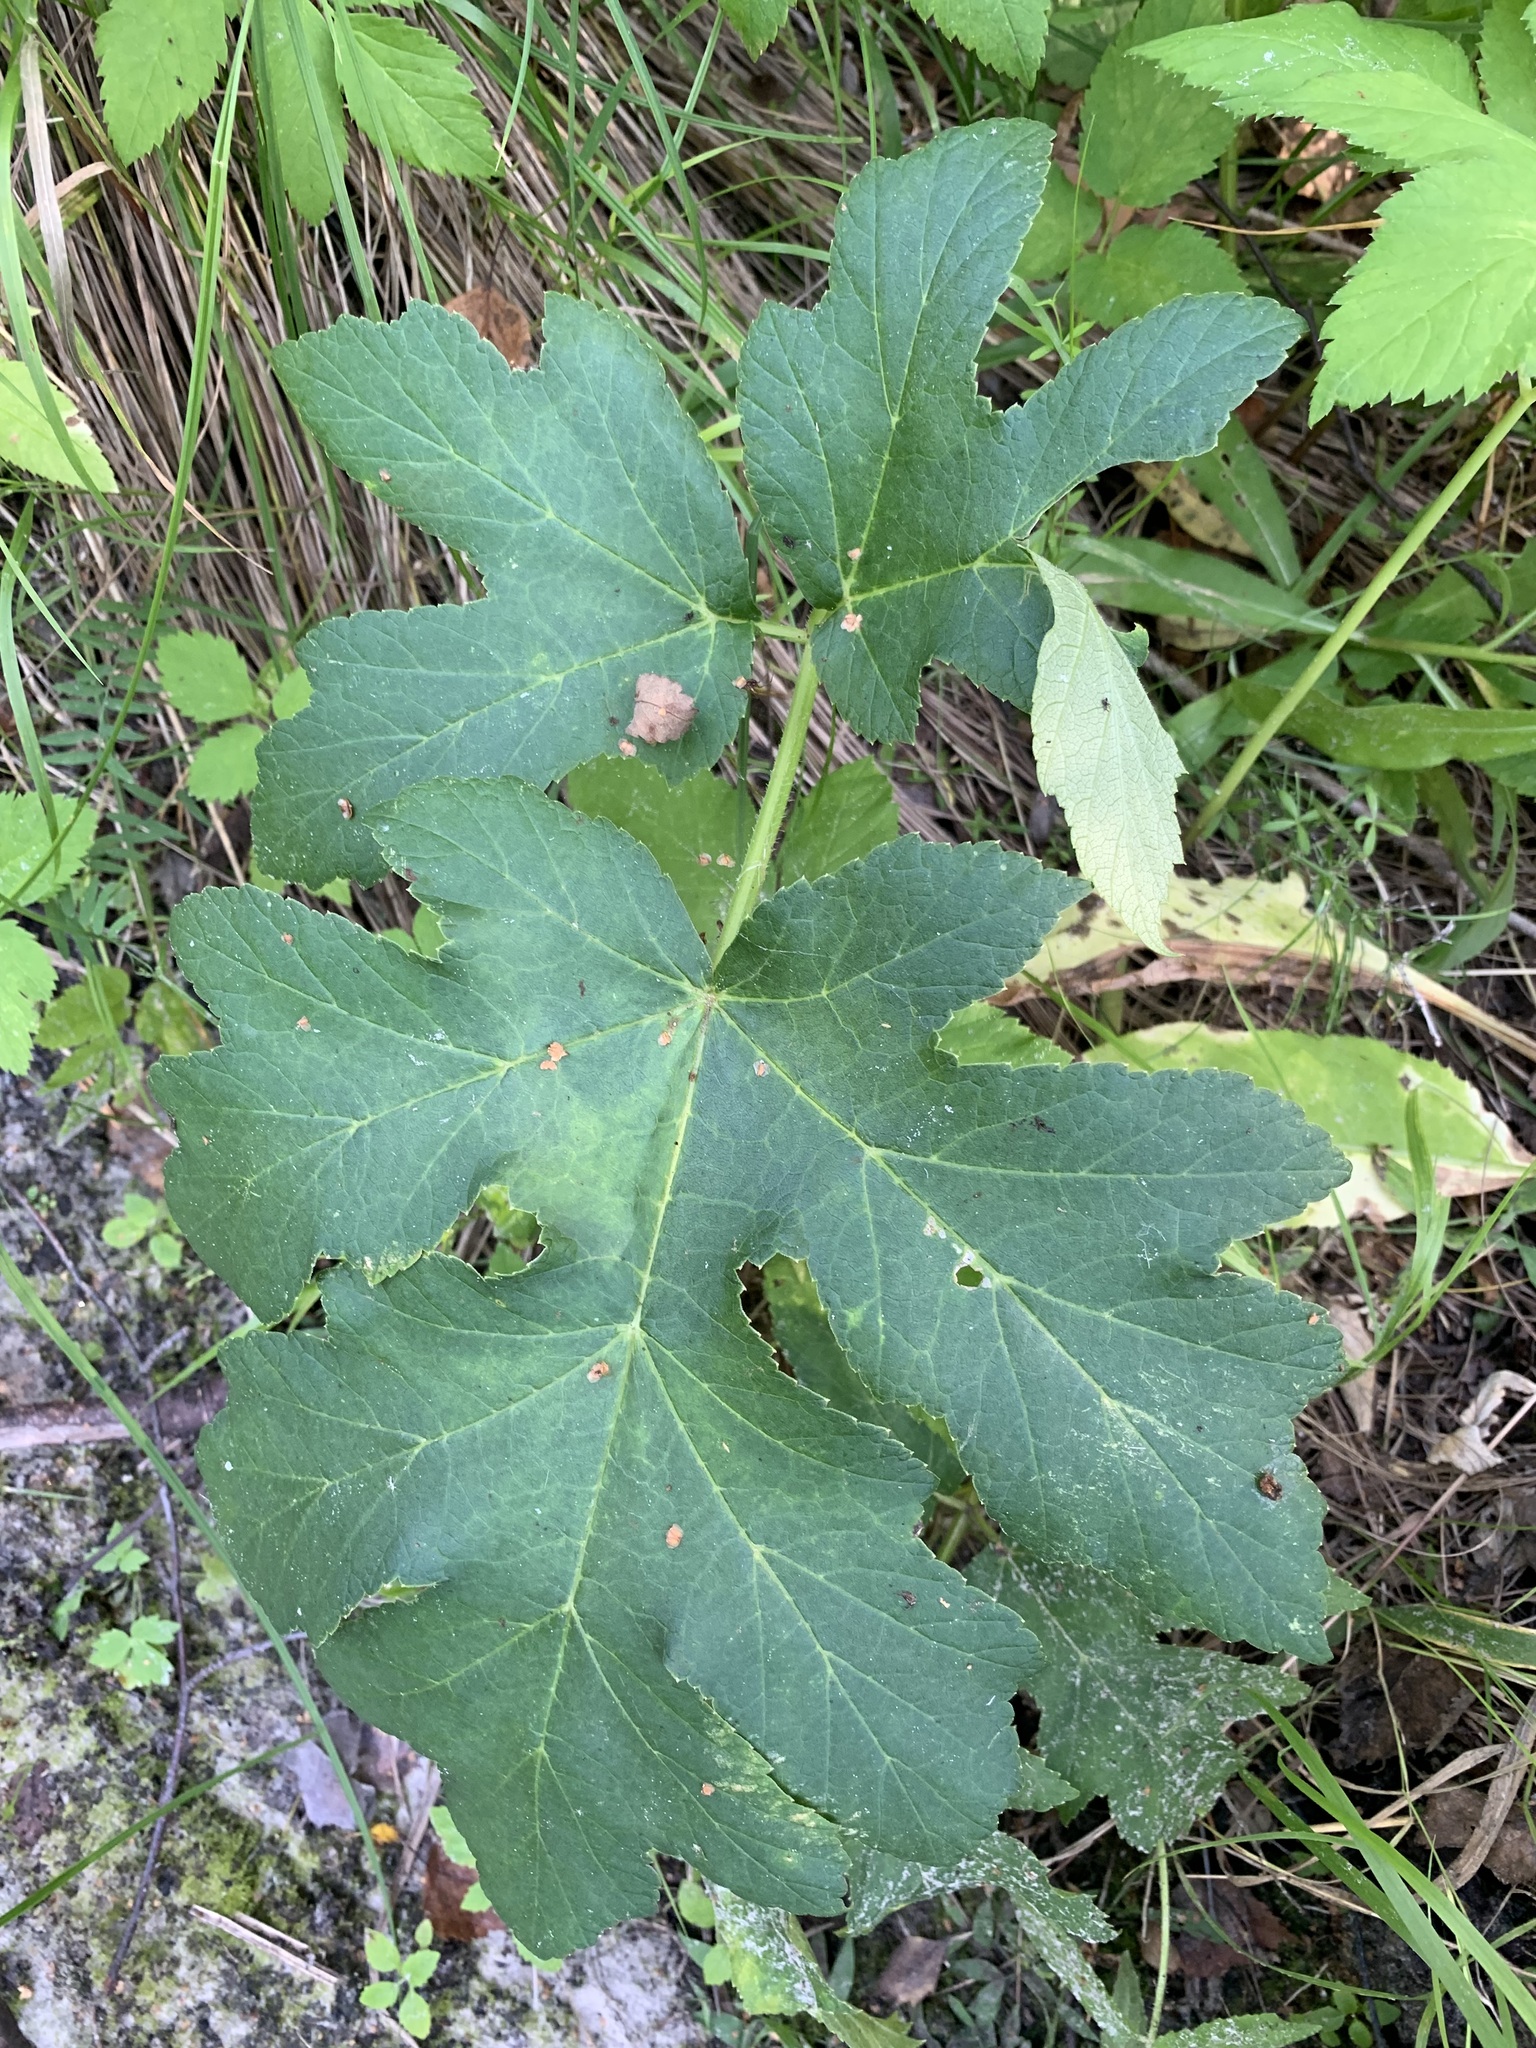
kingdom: Plantae
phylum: Tracheophyta
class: Magnoliopsida
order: Apiales
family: Apiaceae
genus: Heracleum
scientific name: Heracleum sphondylium
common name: Hogweed
